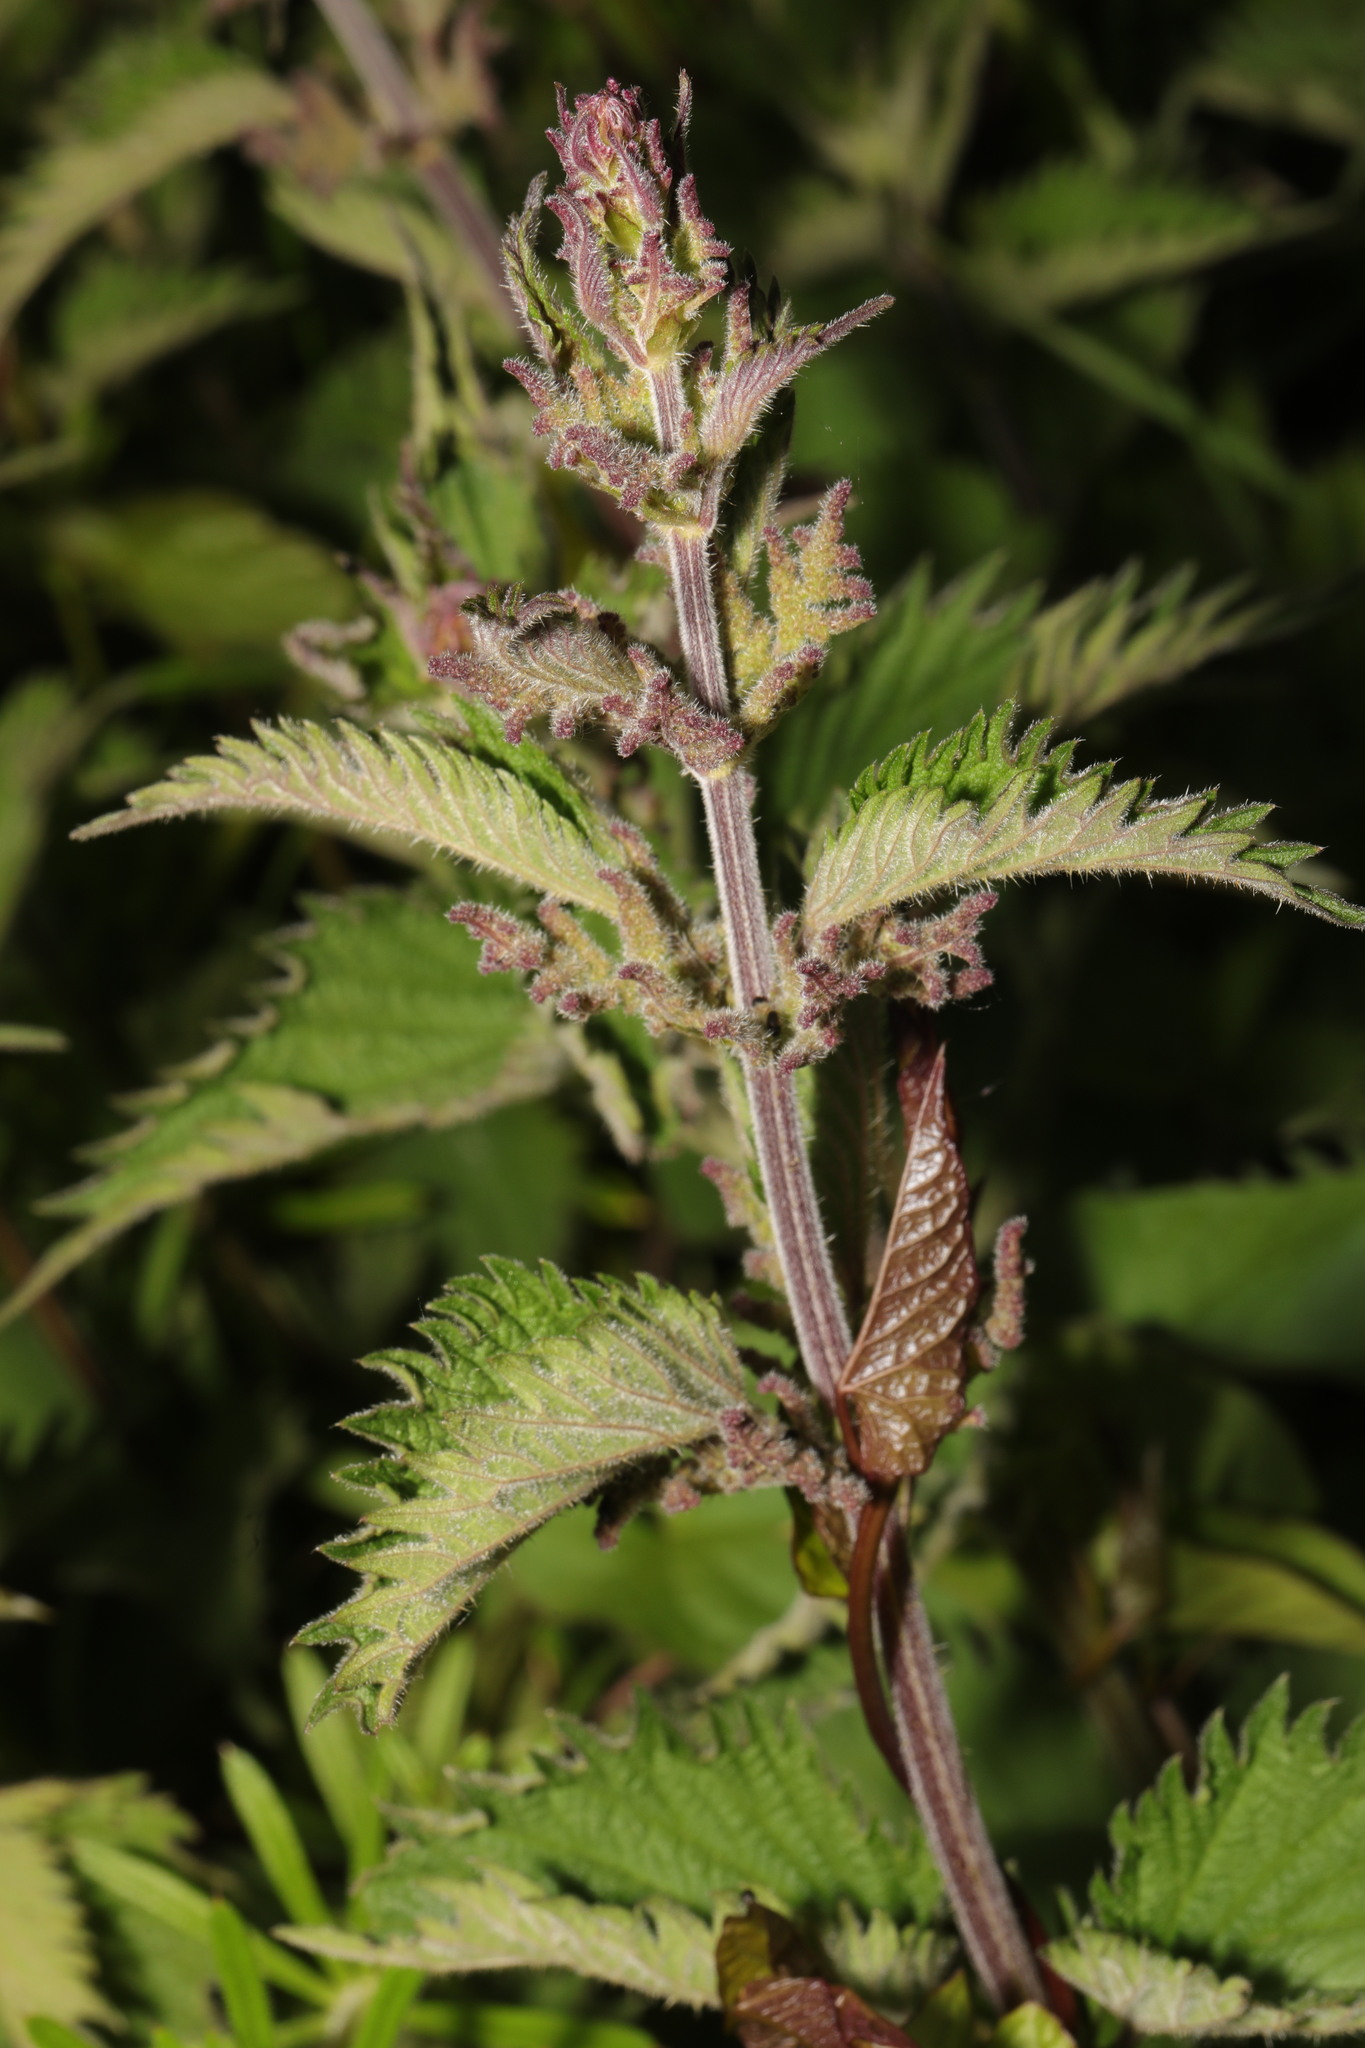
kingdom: Plantae
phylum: Tracheophyta
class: Magnoliopsida
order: Rosales
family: Urticaceae
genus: Urtica
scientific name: Urtica dioica
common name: Common nettle
